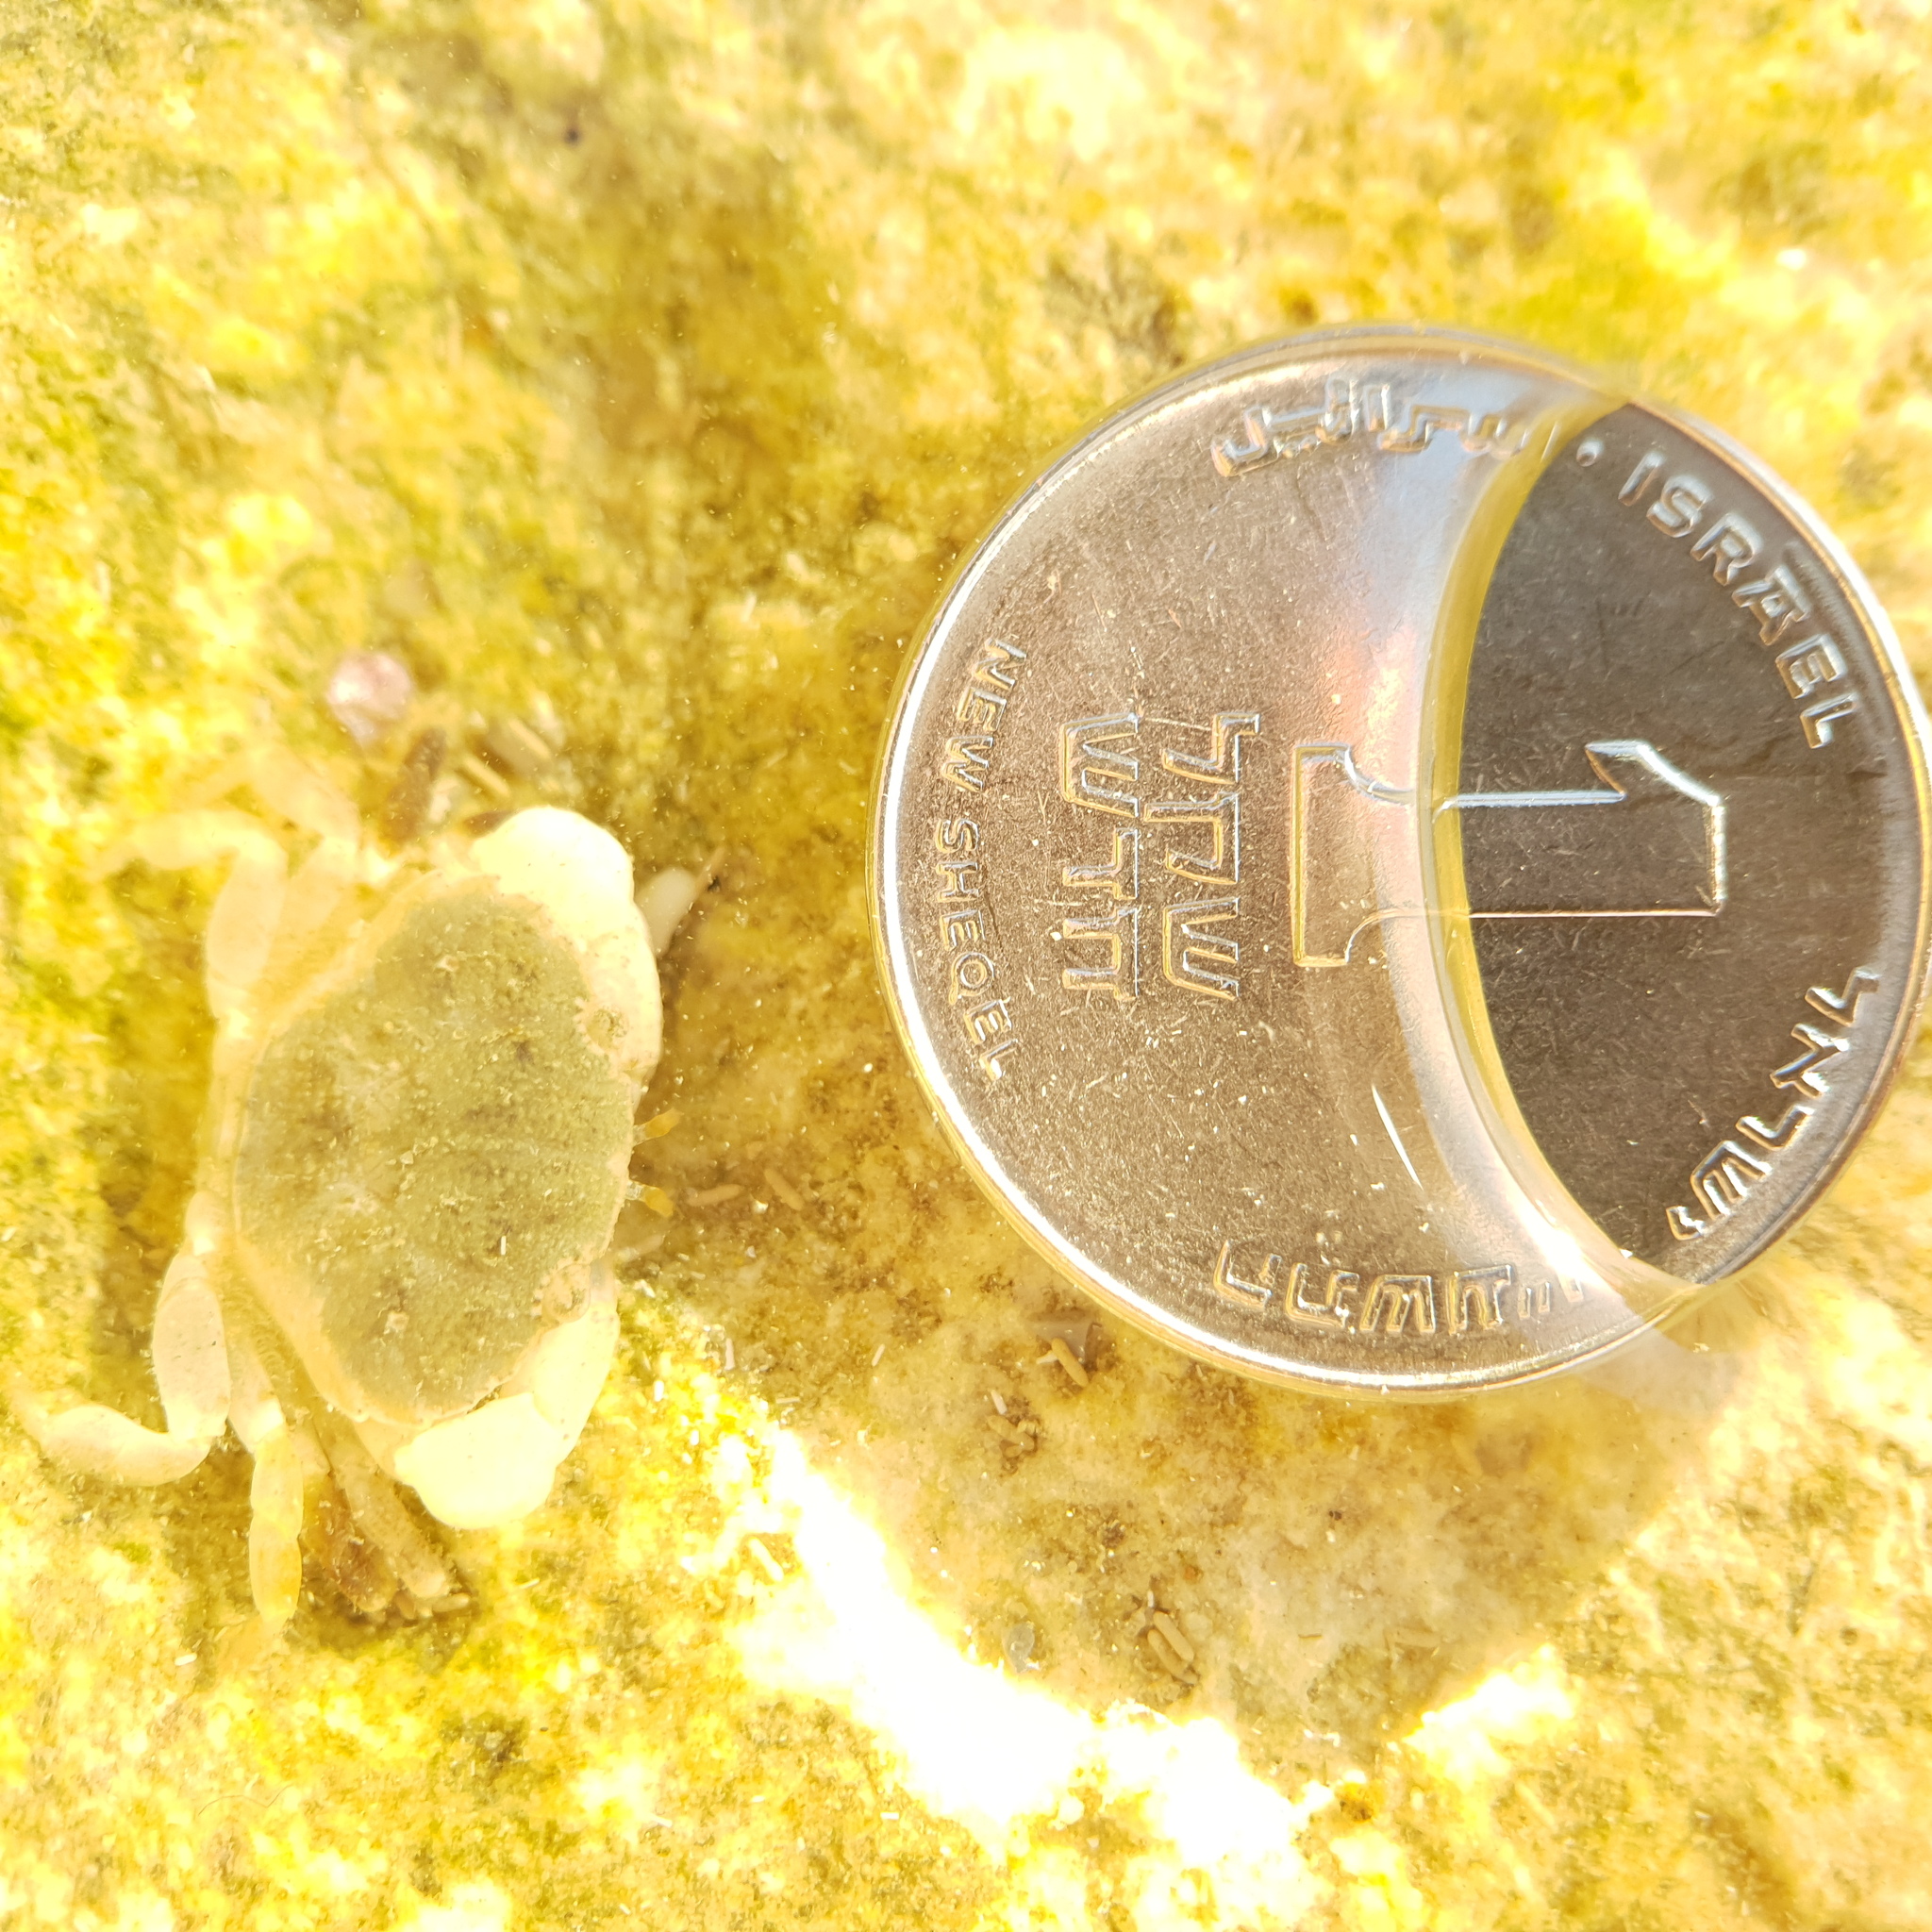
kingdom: Animalia
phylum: Arthropoda
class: Malacostraca
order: Decapoda
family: Xanthidae
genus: Xantho
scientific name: Xantho poressa
